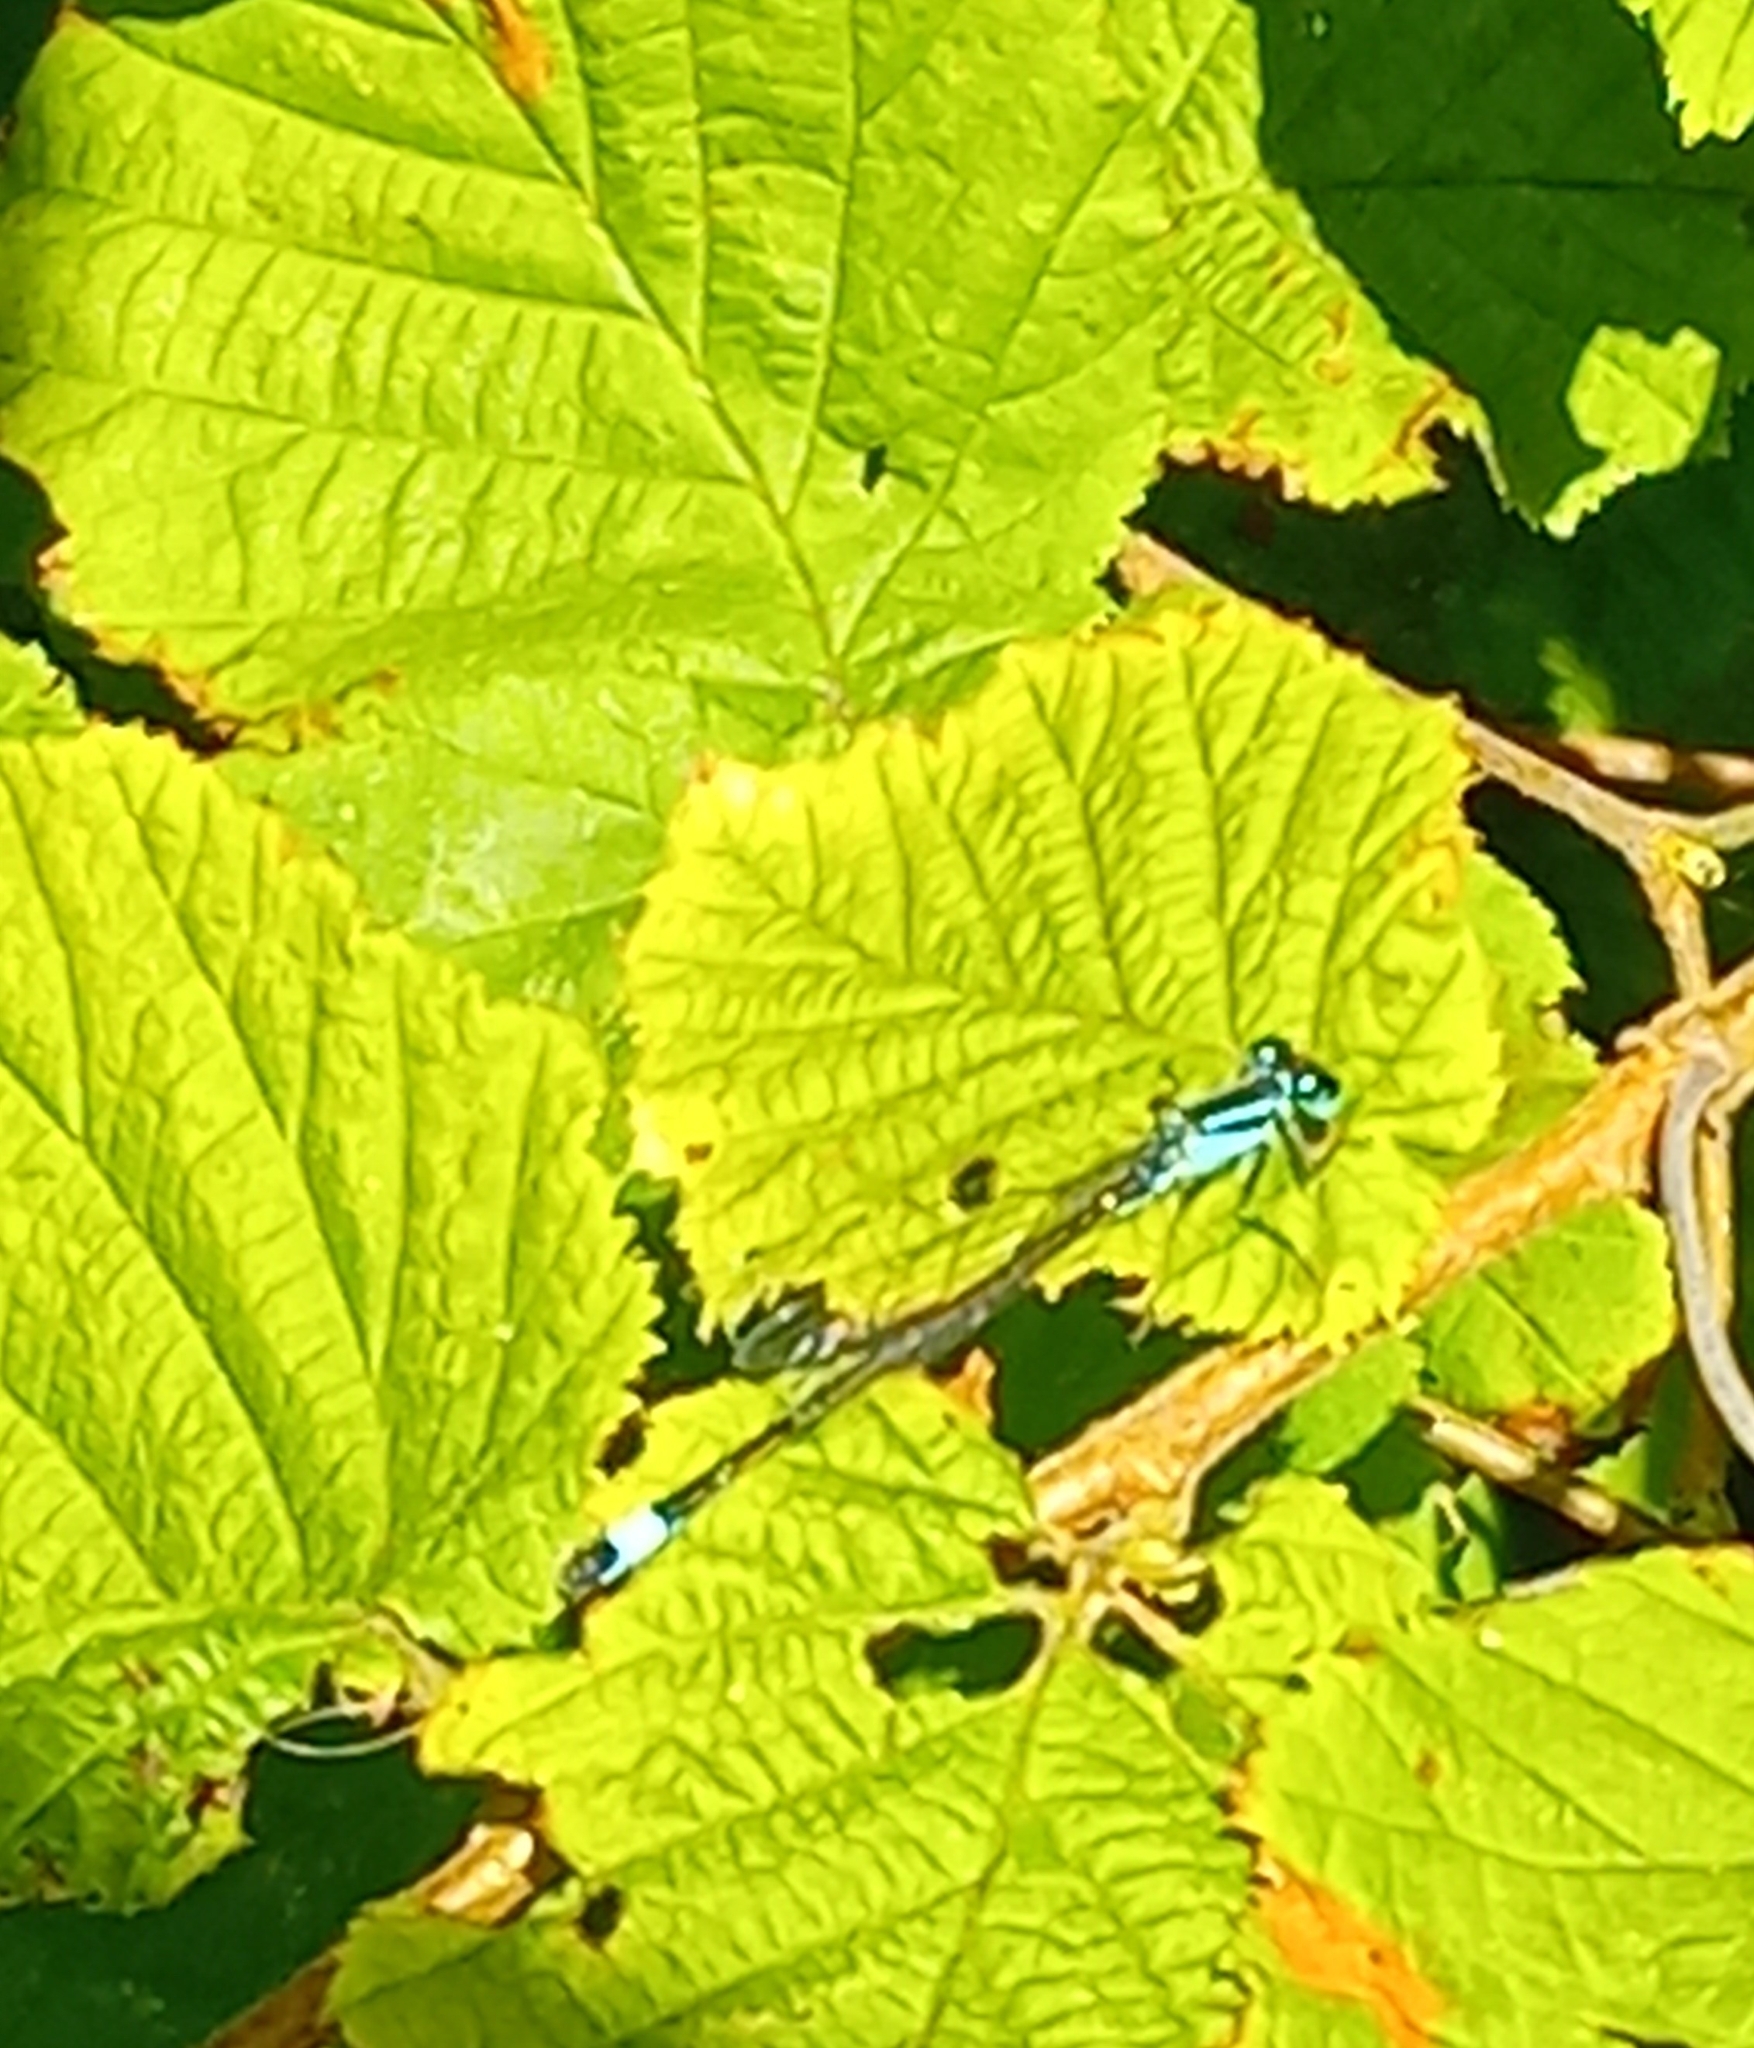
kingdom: Animalia
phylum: Arthropoda
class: Insecta
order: Odonata
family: Coenagrionidae
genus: Ischnura
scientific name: Ischnura elegans
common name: Blue-tailed damselfly
